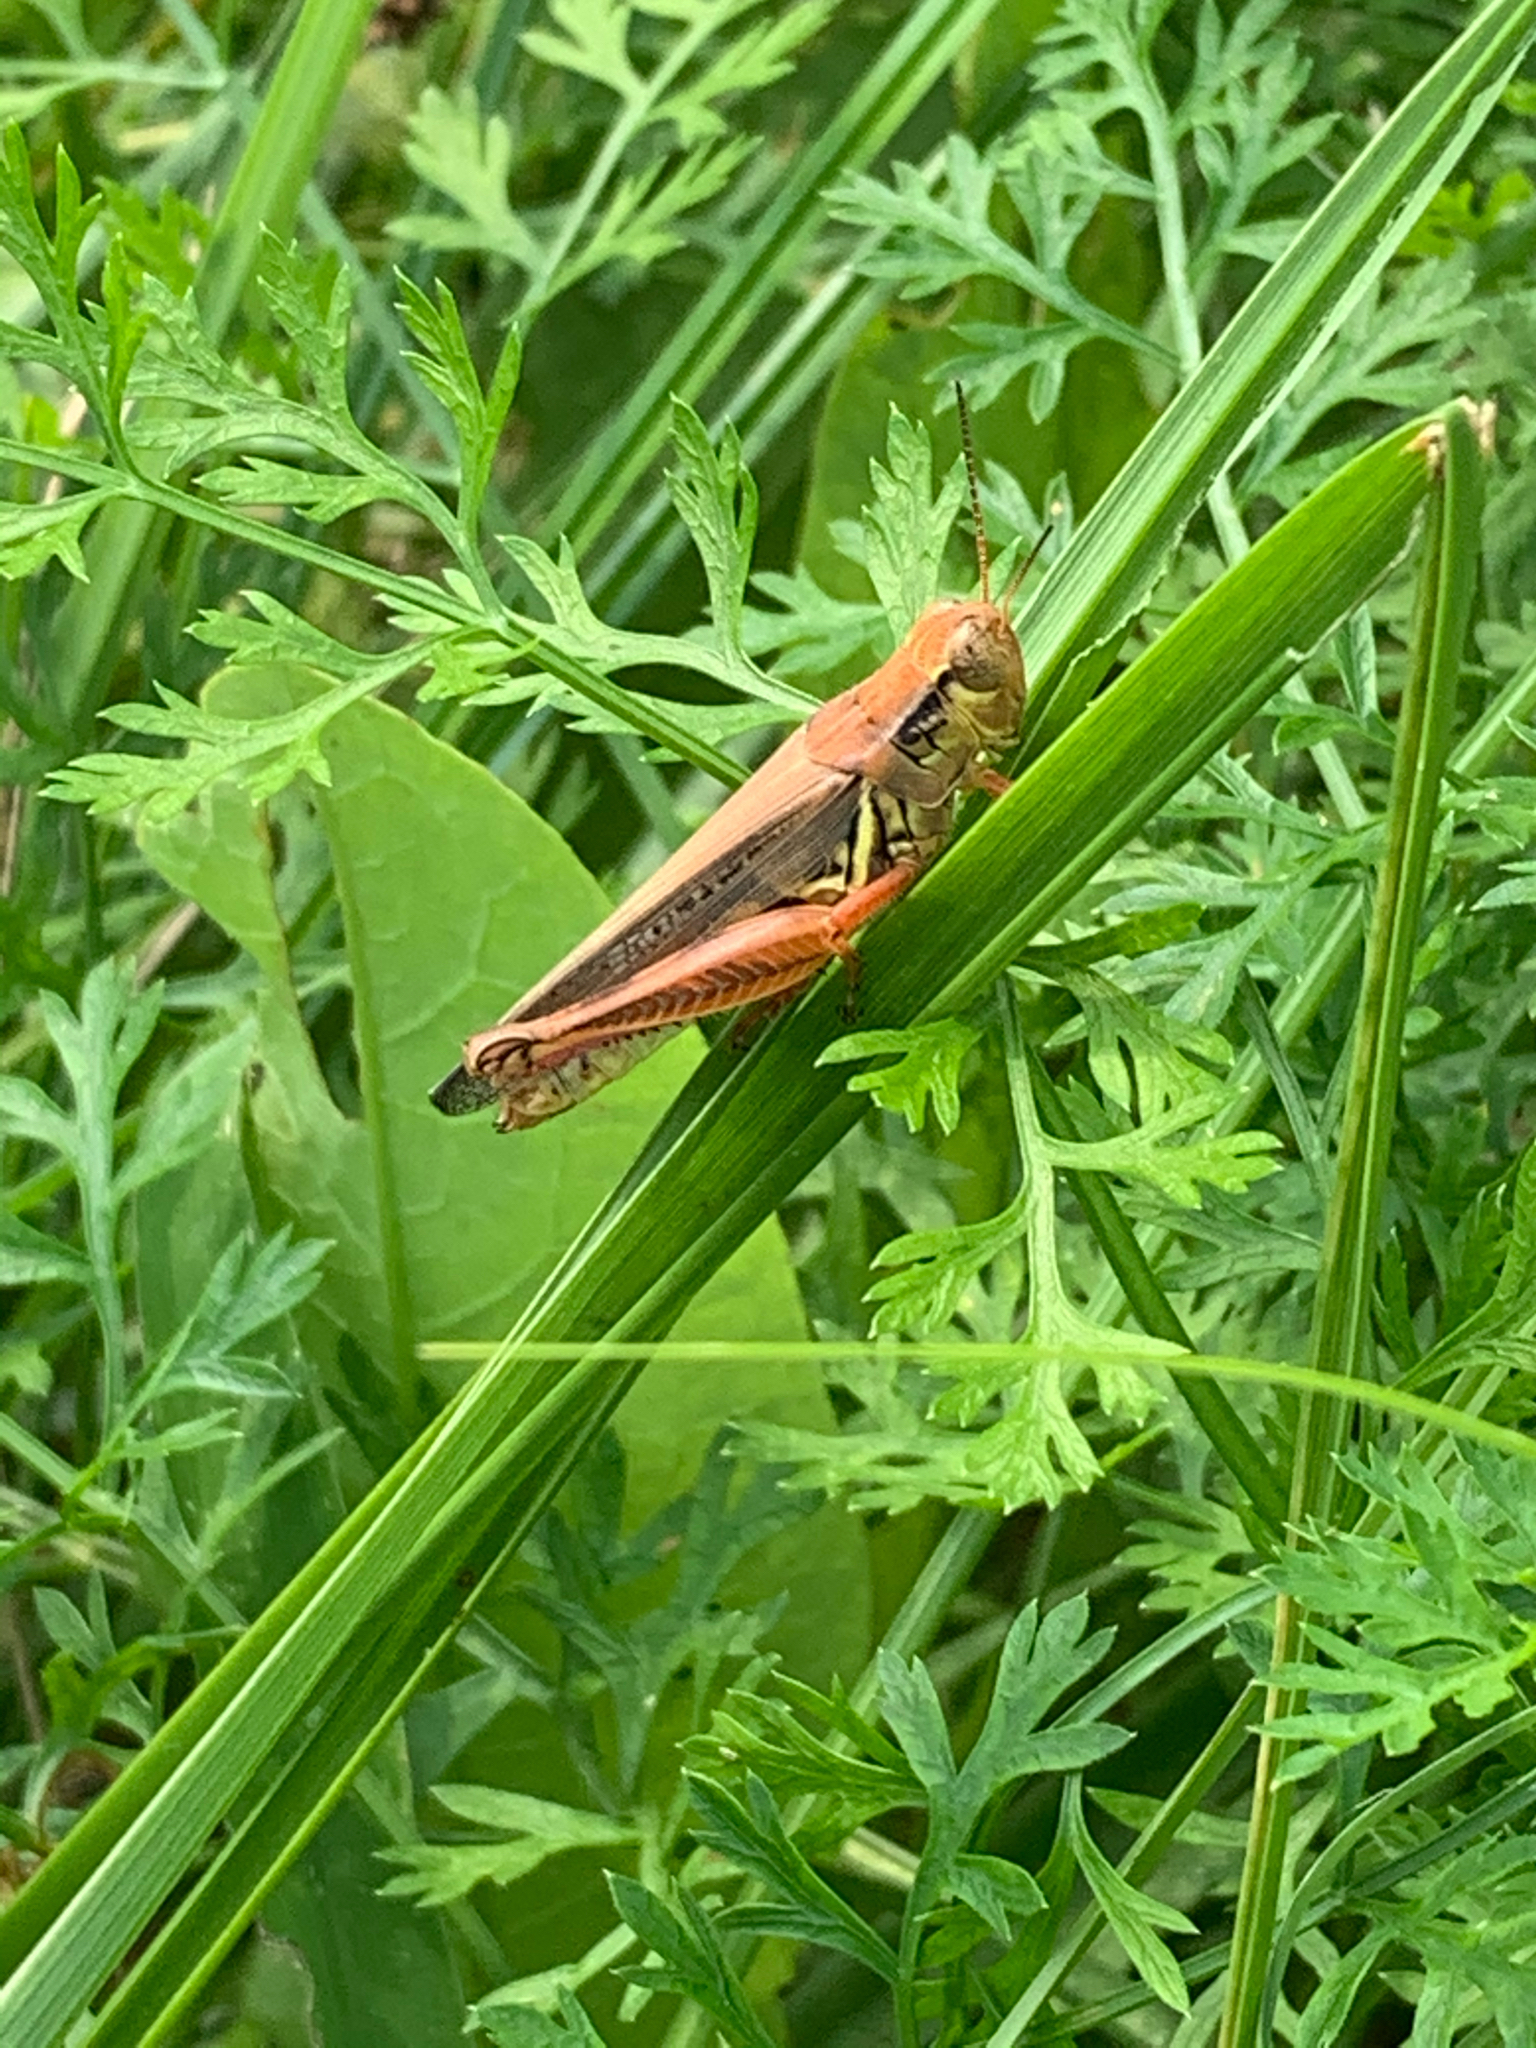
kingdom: Animalia
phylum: Arthropoda
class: Insecta
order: Orthoptera
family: Acrididae
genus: Melanoplus
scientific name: Melanoplus femurrubrum
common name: Red-legged grasshopper
